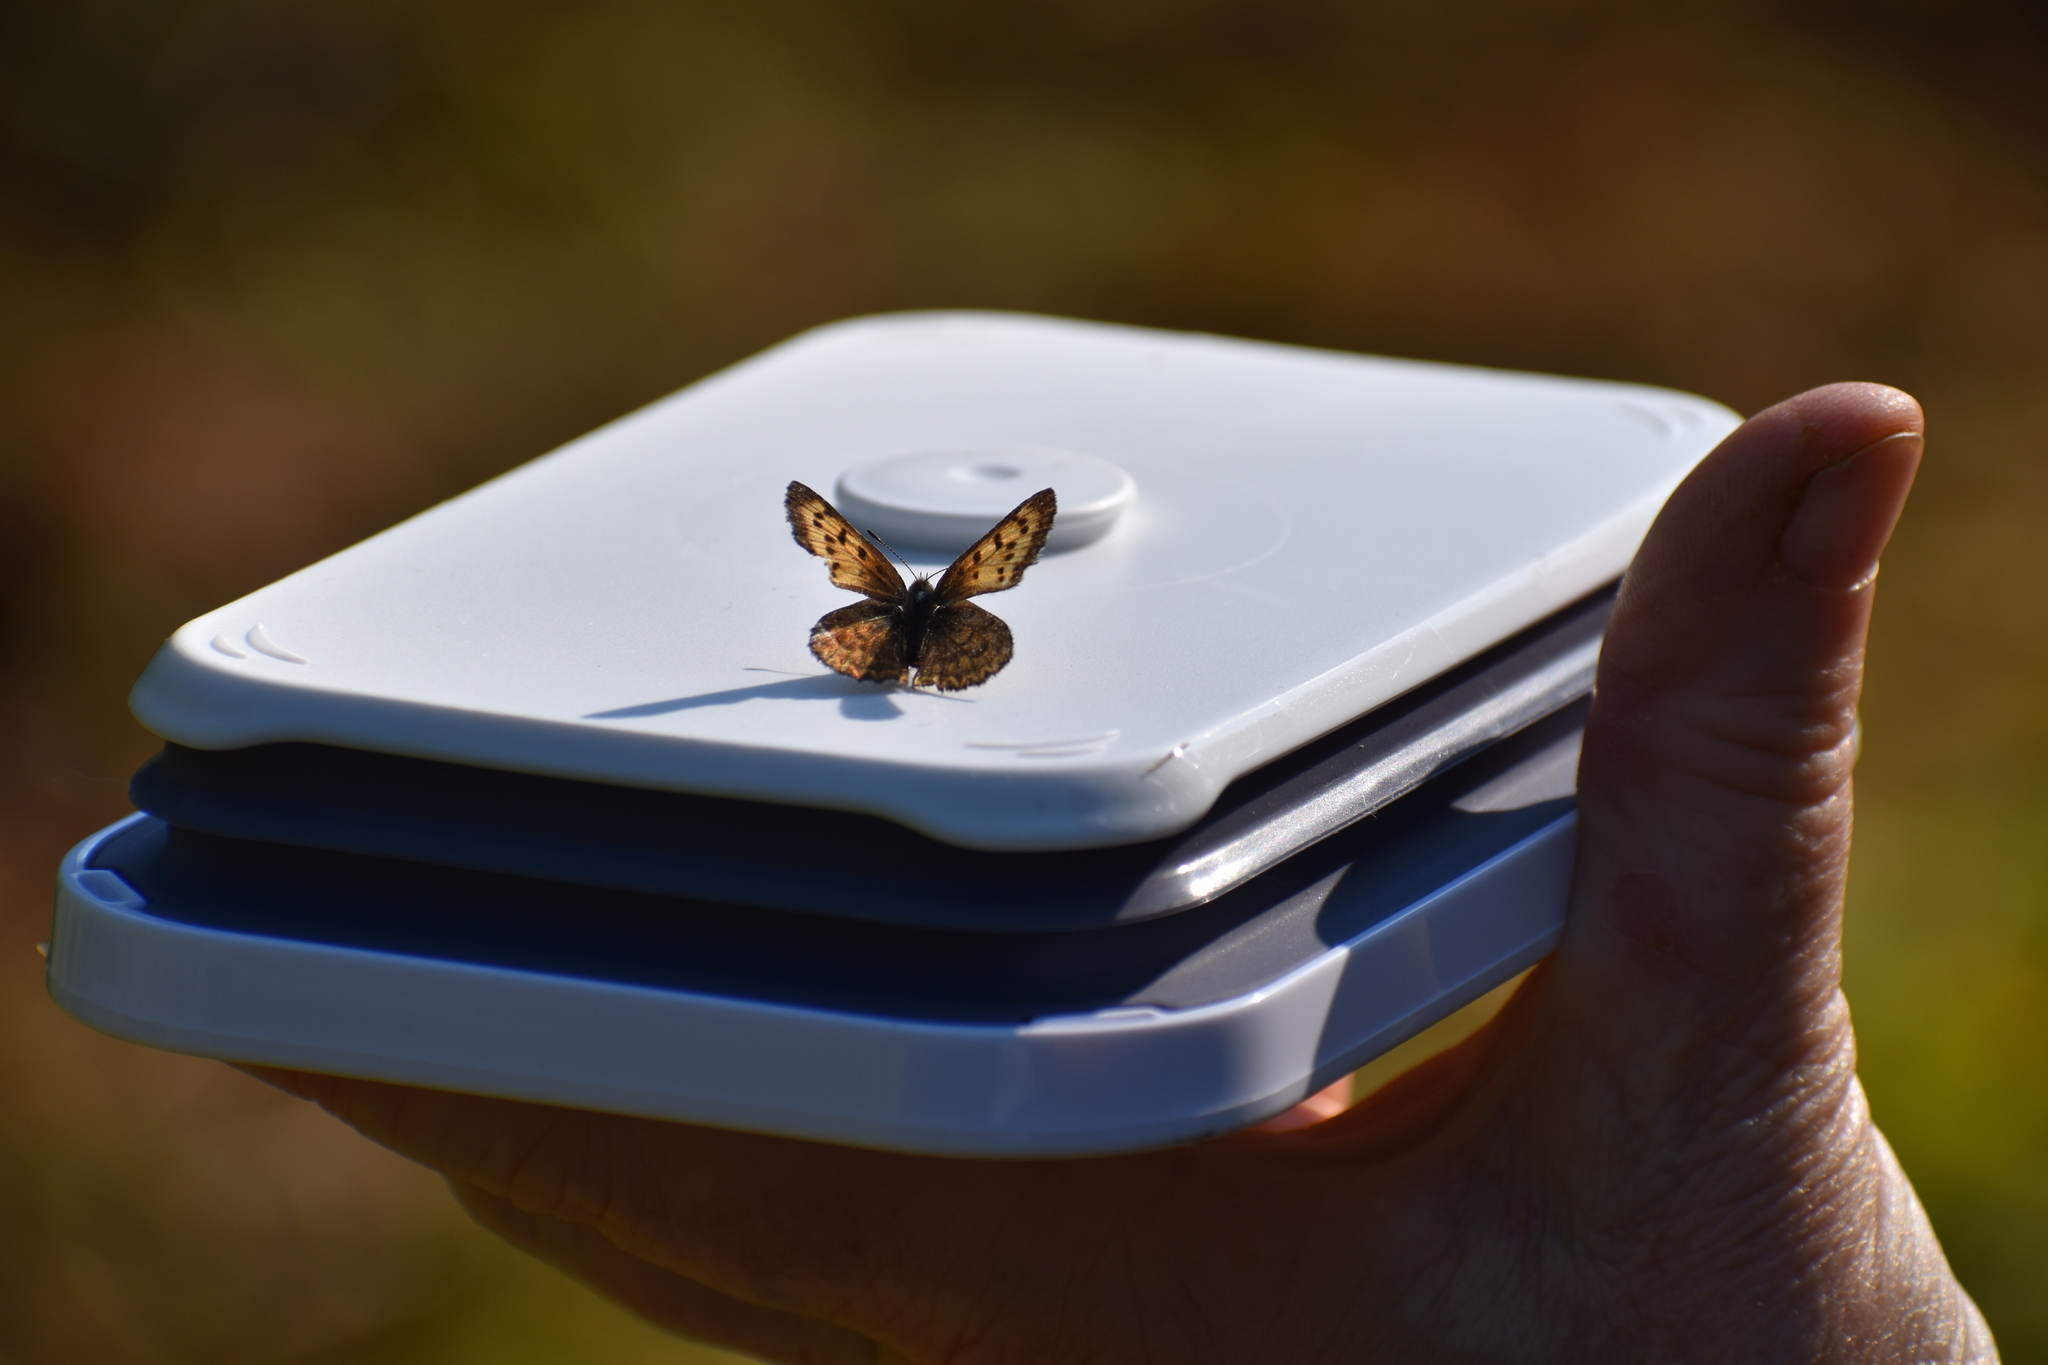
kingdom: Animalia
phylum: Arthropoda
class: Insecta
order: Lepidoptera
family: Lycaenidae
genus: Tharsalea
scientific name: Tharsalea mariposa
